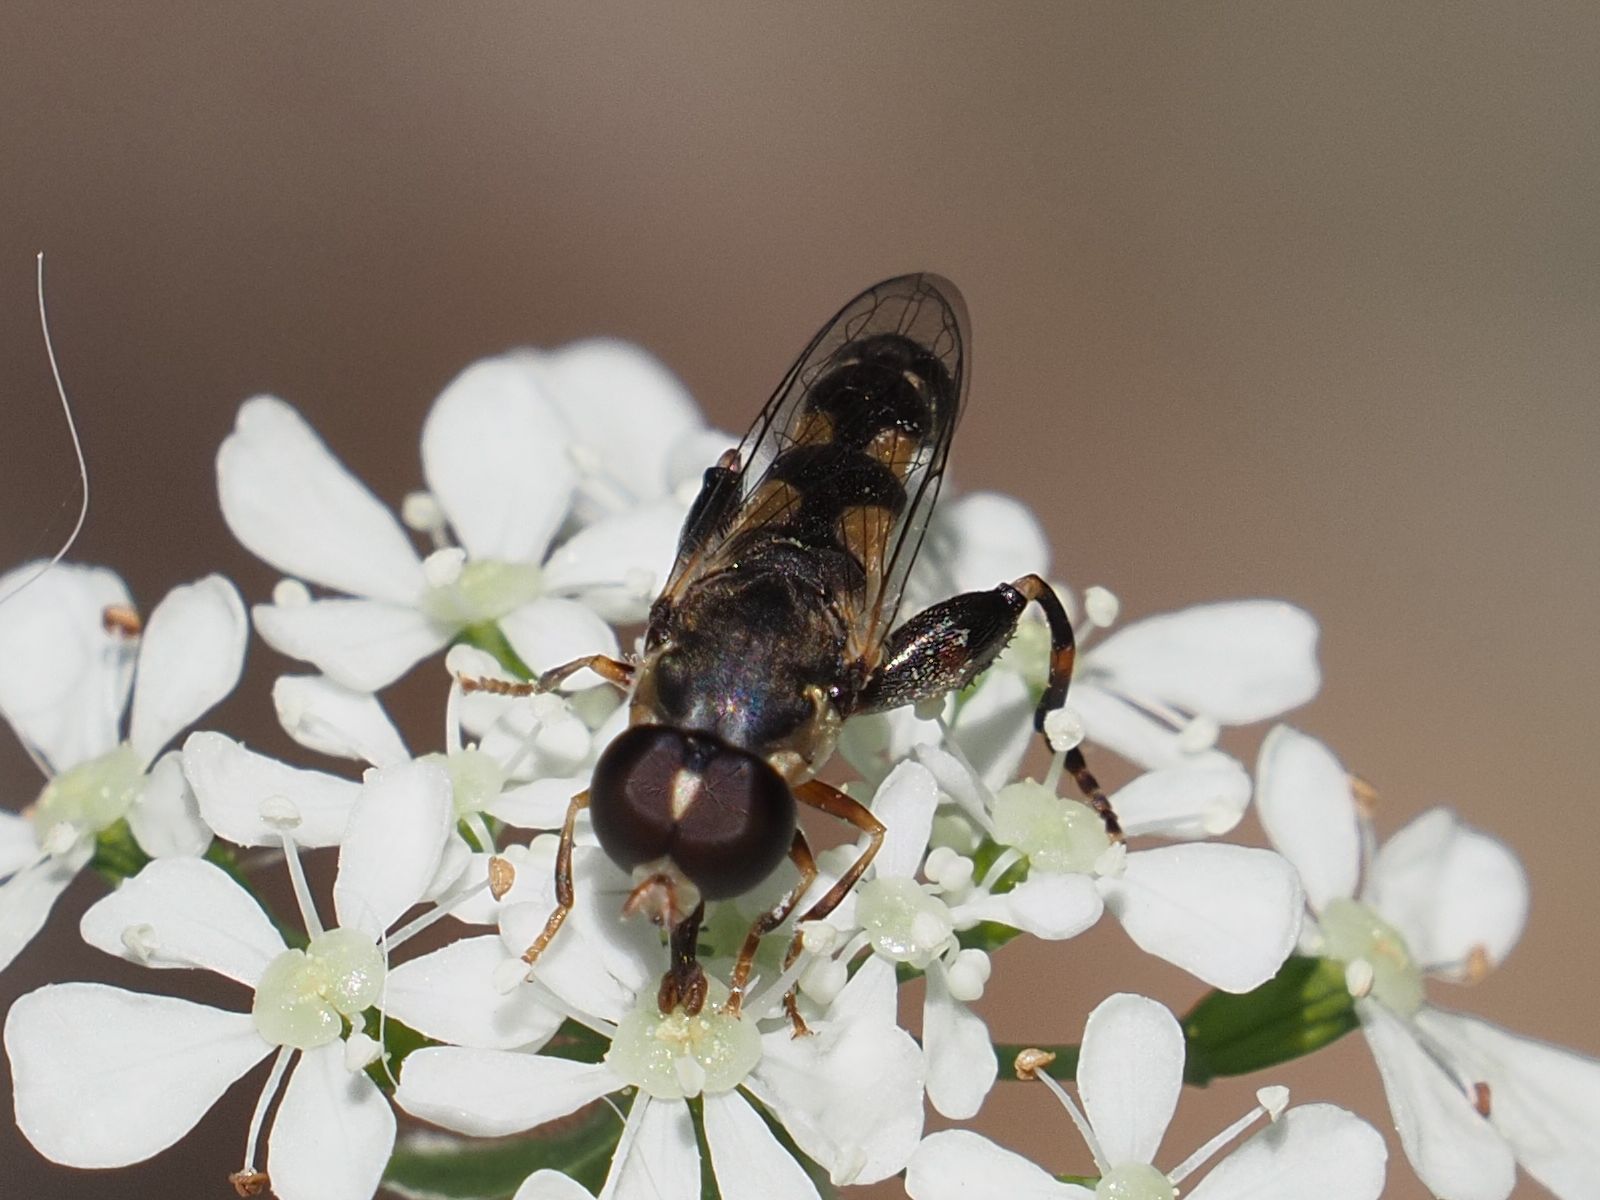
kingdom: Animalia
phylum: Arthropoda
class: Insecta
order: Diptera
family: Syrphidae
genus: Syritta
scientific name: Syritta pipiens
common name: Hover fly
